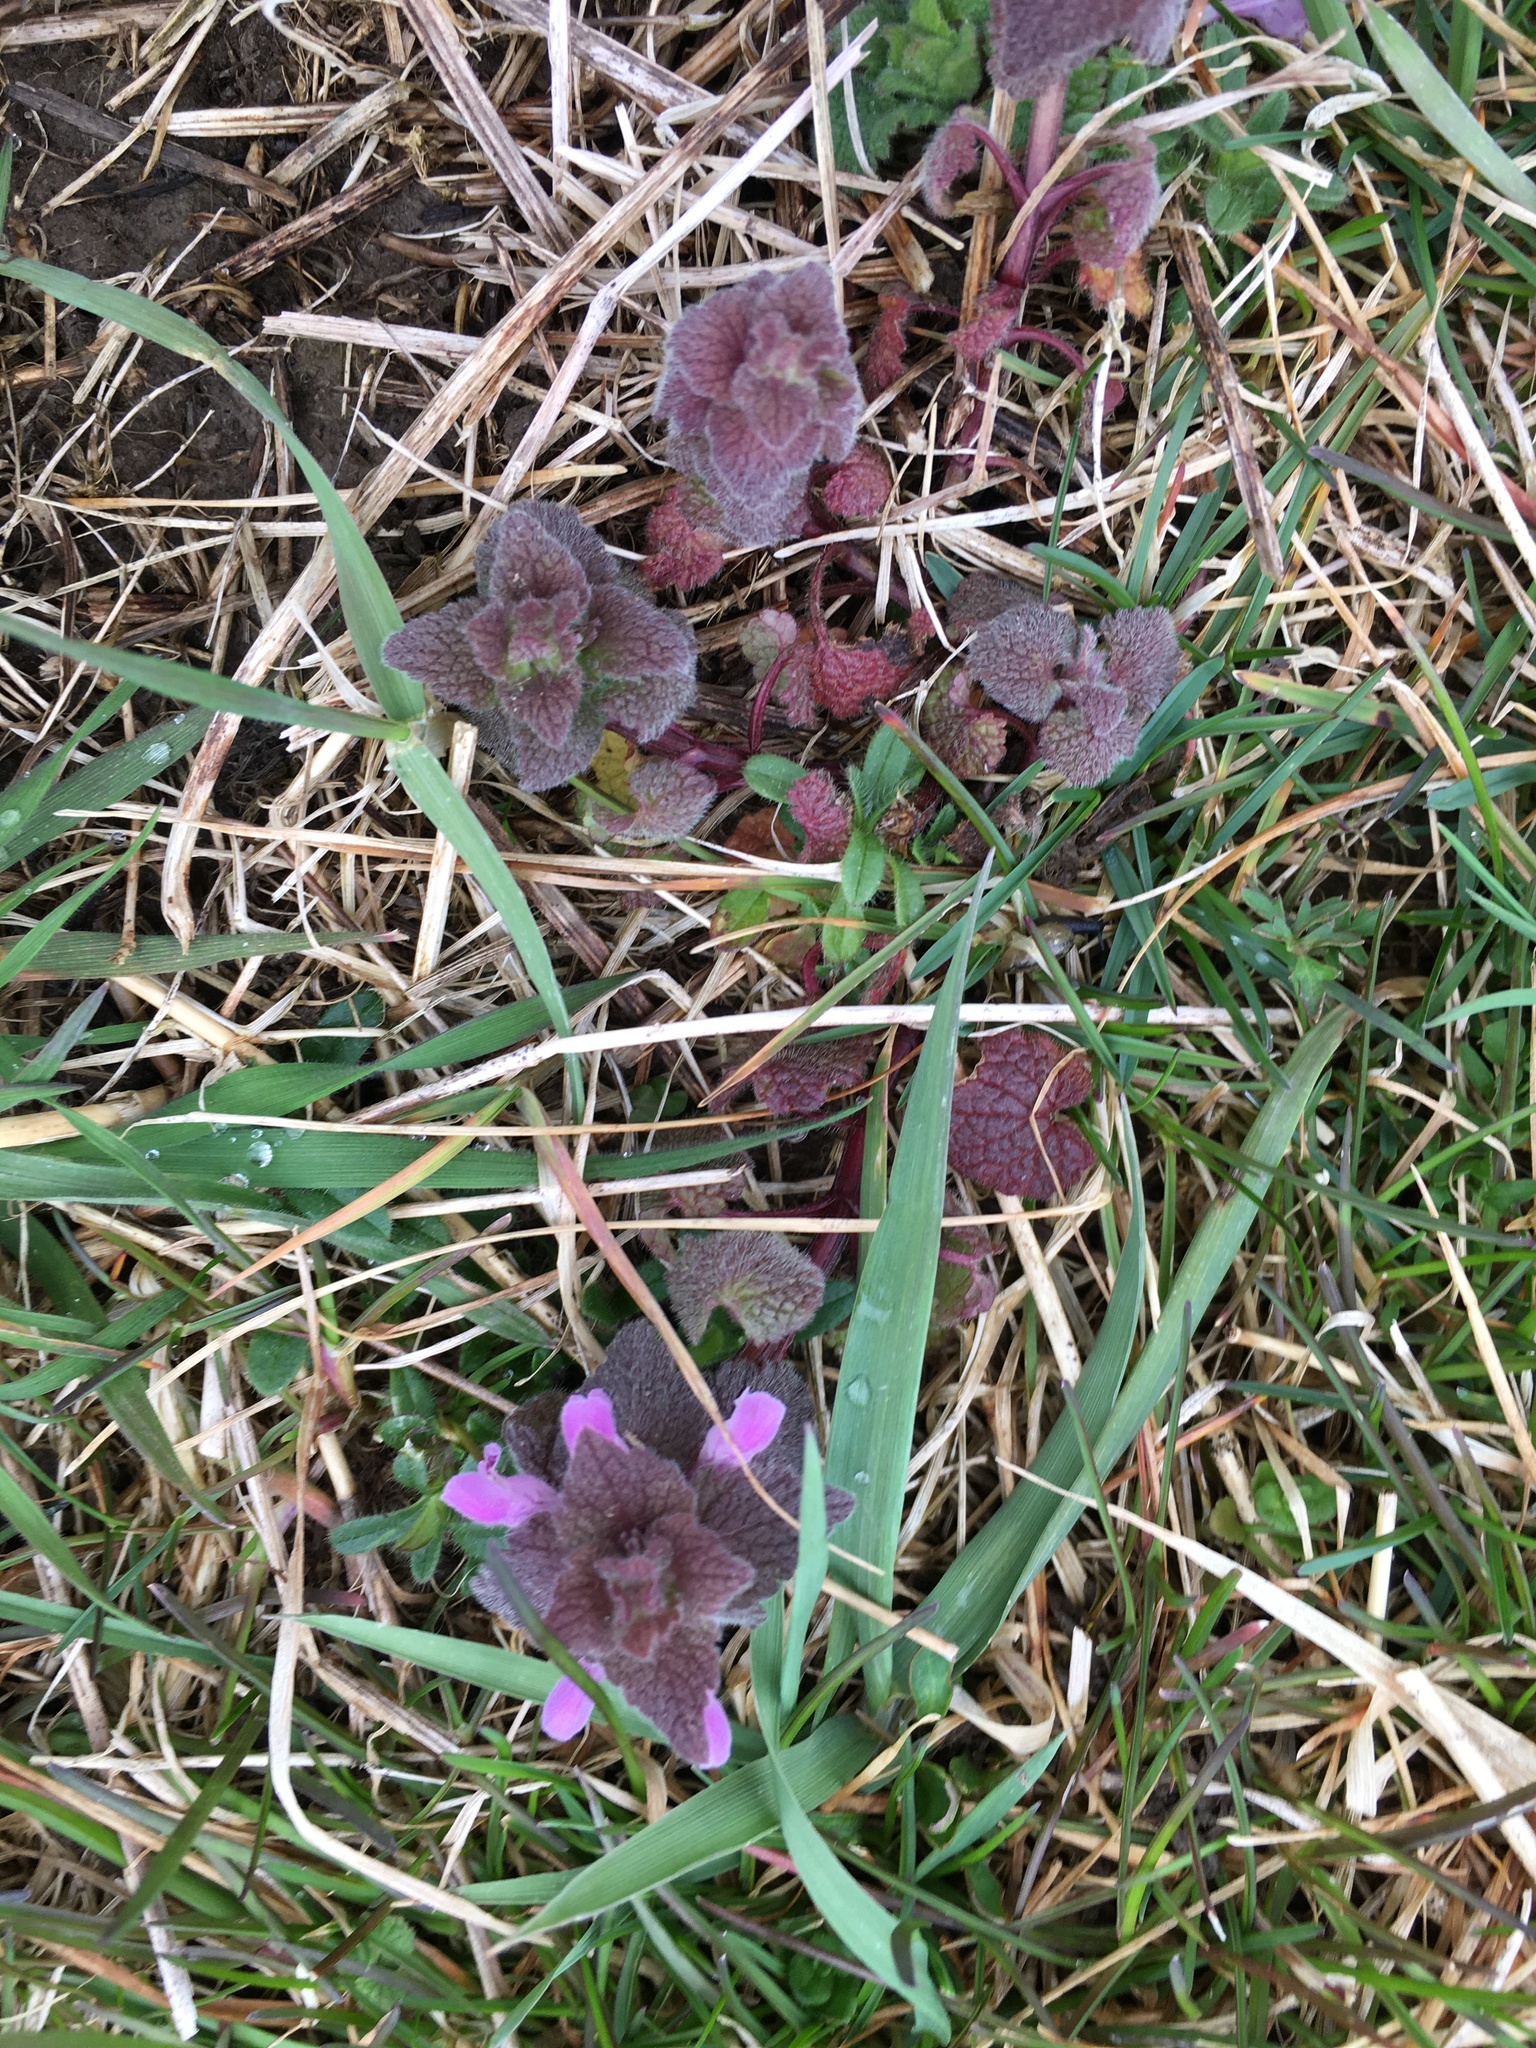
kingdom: Plantae
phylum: Tracheophyta
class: Magnoliopsida
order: Lamiales
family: Lamiaceae
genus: Lamium
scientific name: Lamium purpureum
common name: Red dead-nettle
